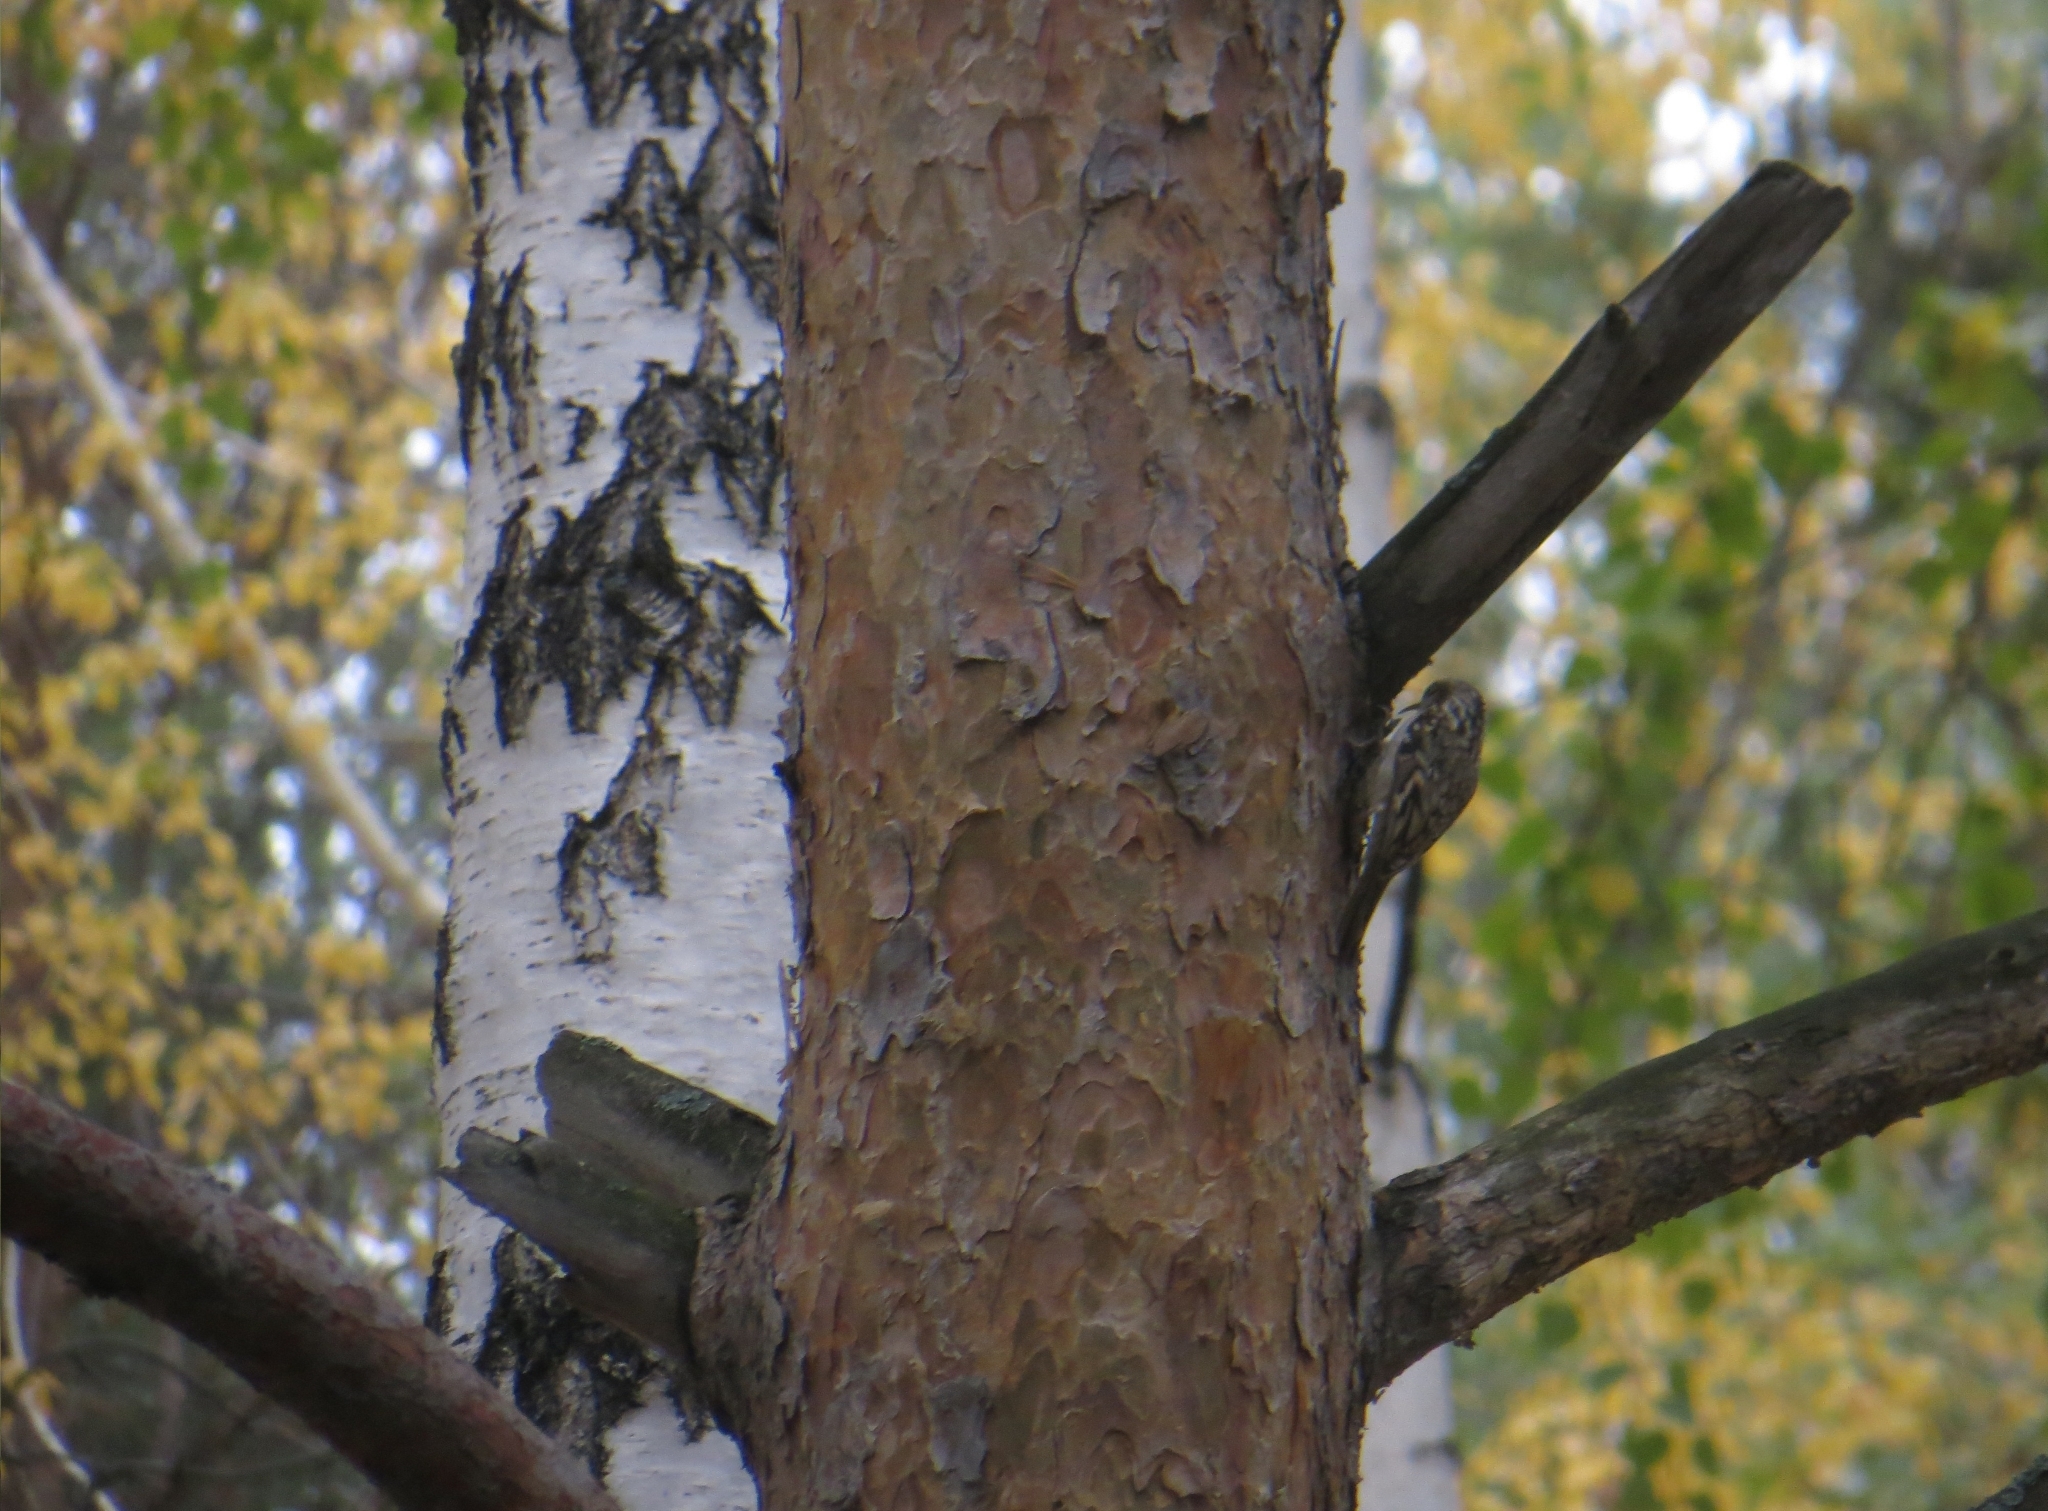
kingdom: Animalia
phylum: Chordata
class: Aves
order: Passeriformes
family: Certhiidae
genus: Certhia
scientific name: Certhia familiaris
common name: Eurasian treecreeper
